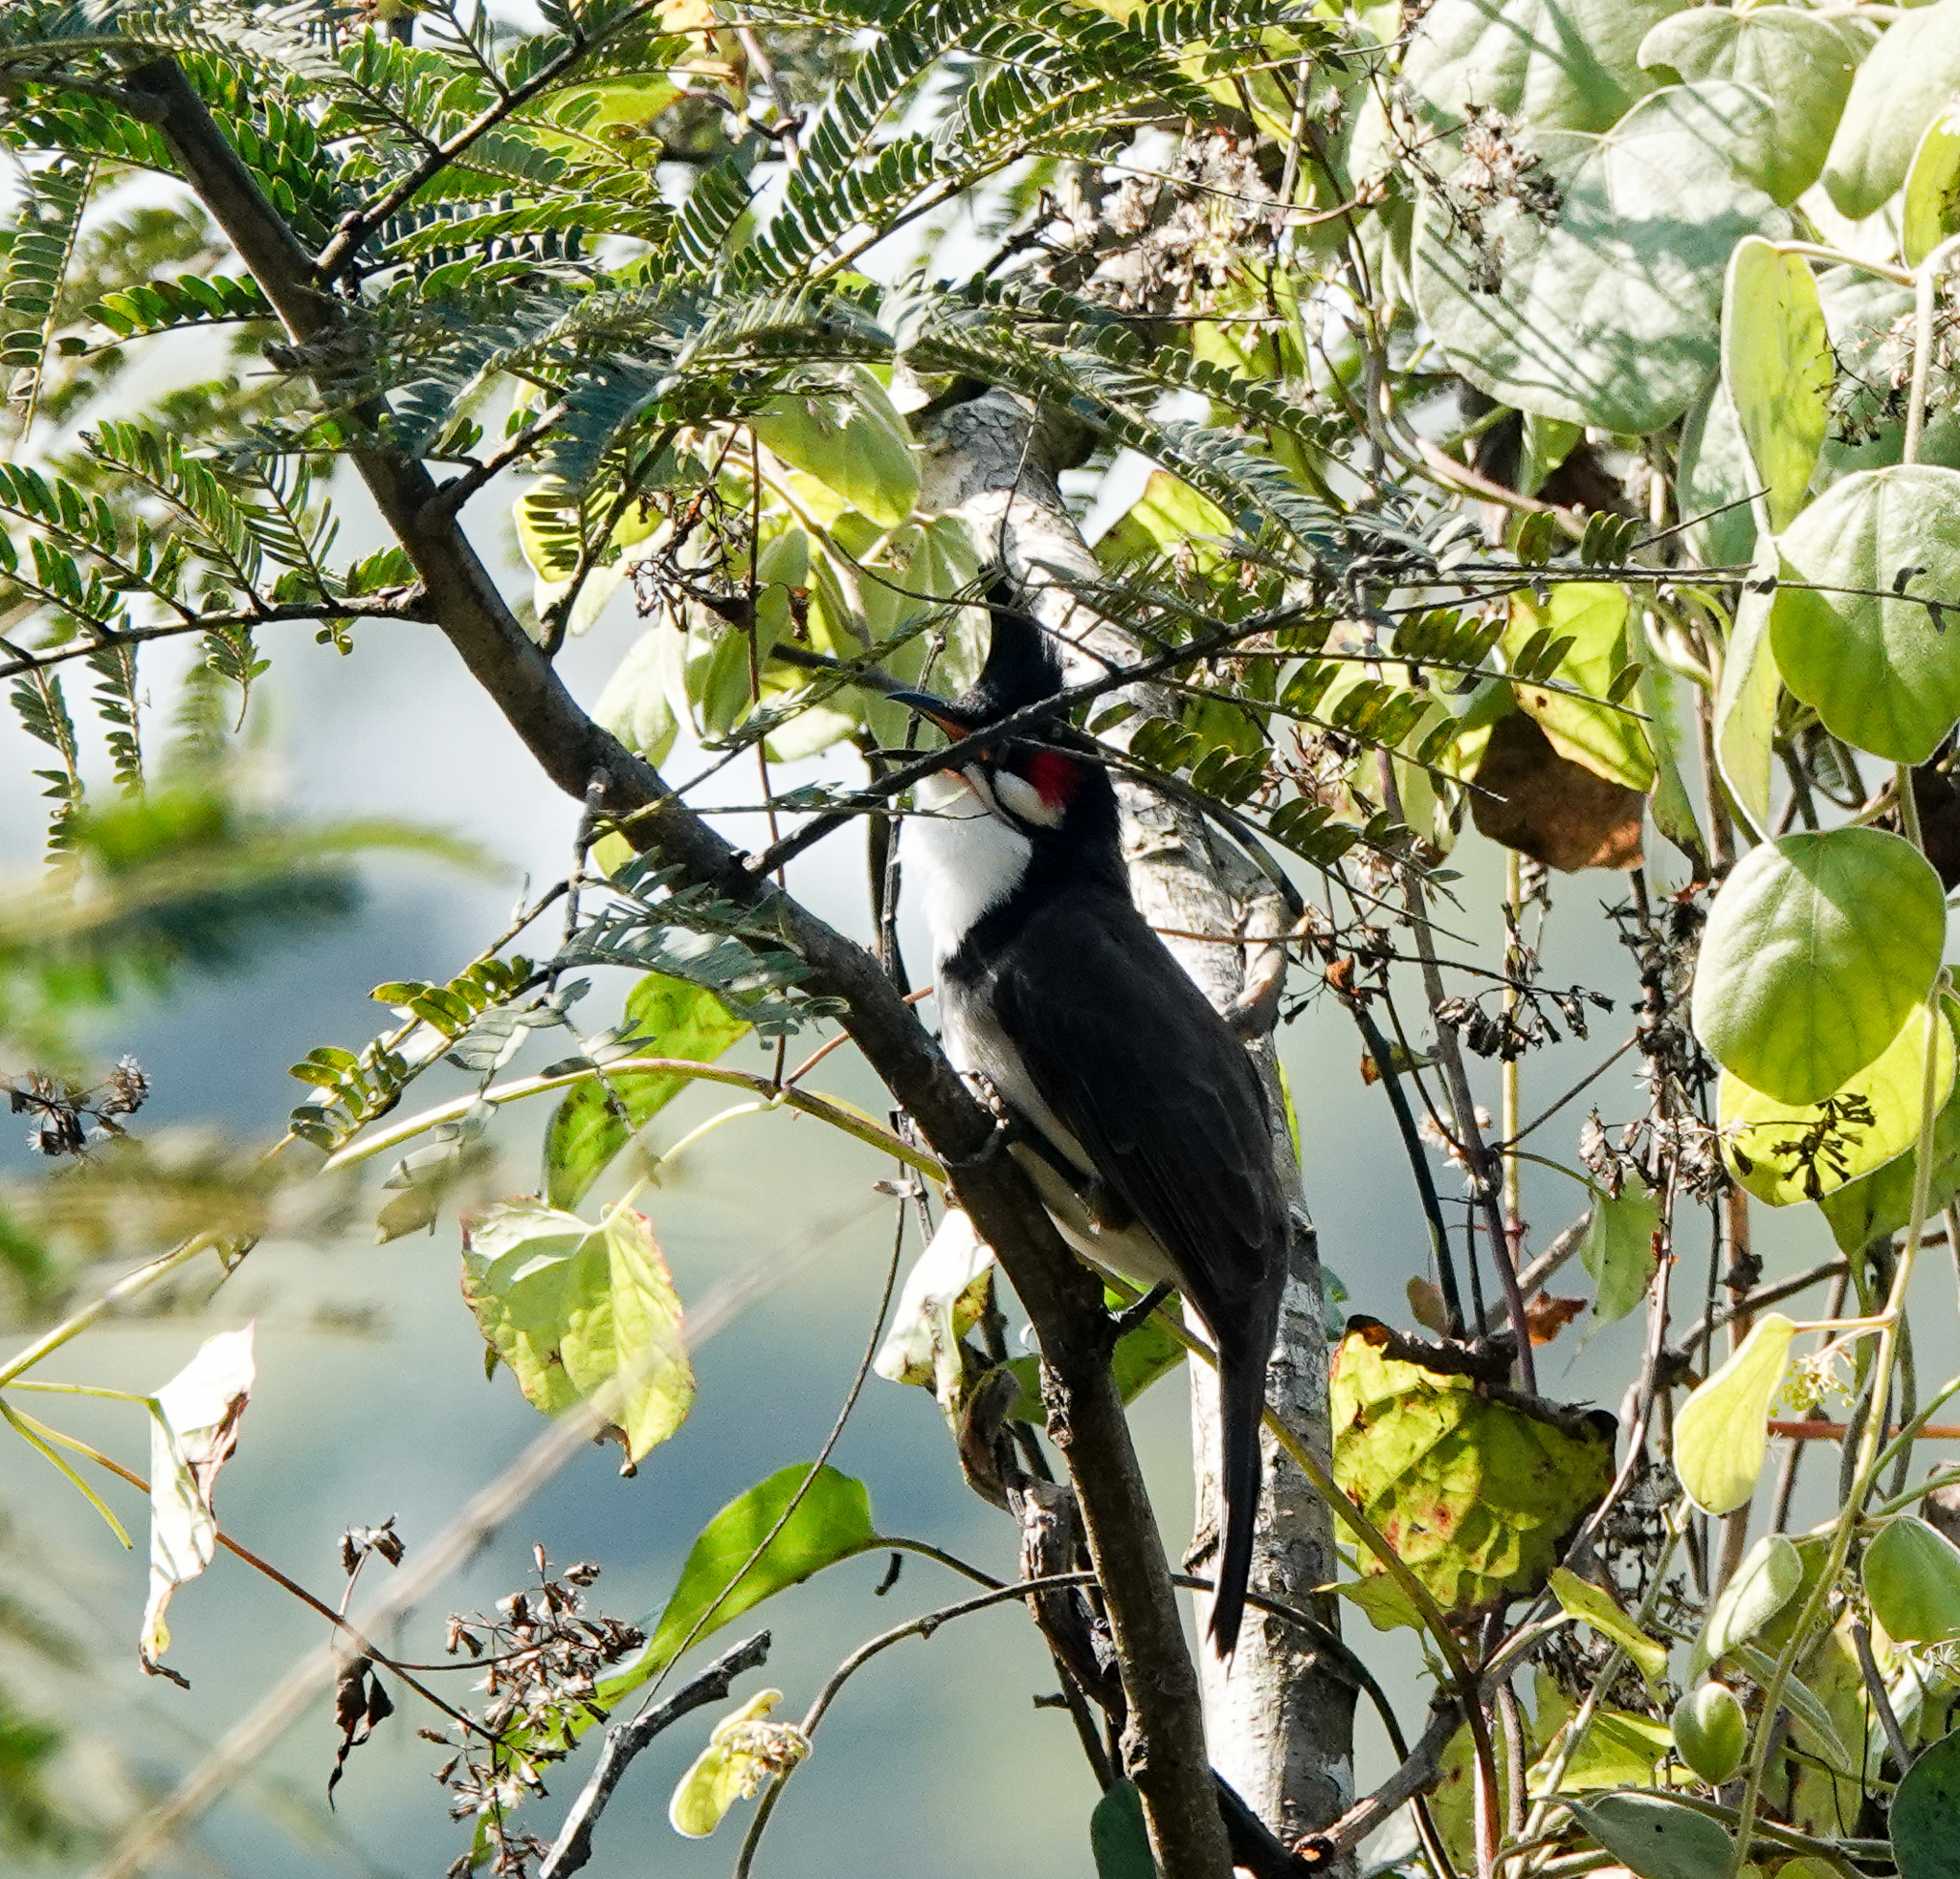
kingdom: Animalia
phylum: Chordata
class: Aves
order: Passeriformes
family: Pycnonotidae
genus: Pycnonotus
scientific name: Pycnonotus jocosus
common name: Red-whiskered bulbul
